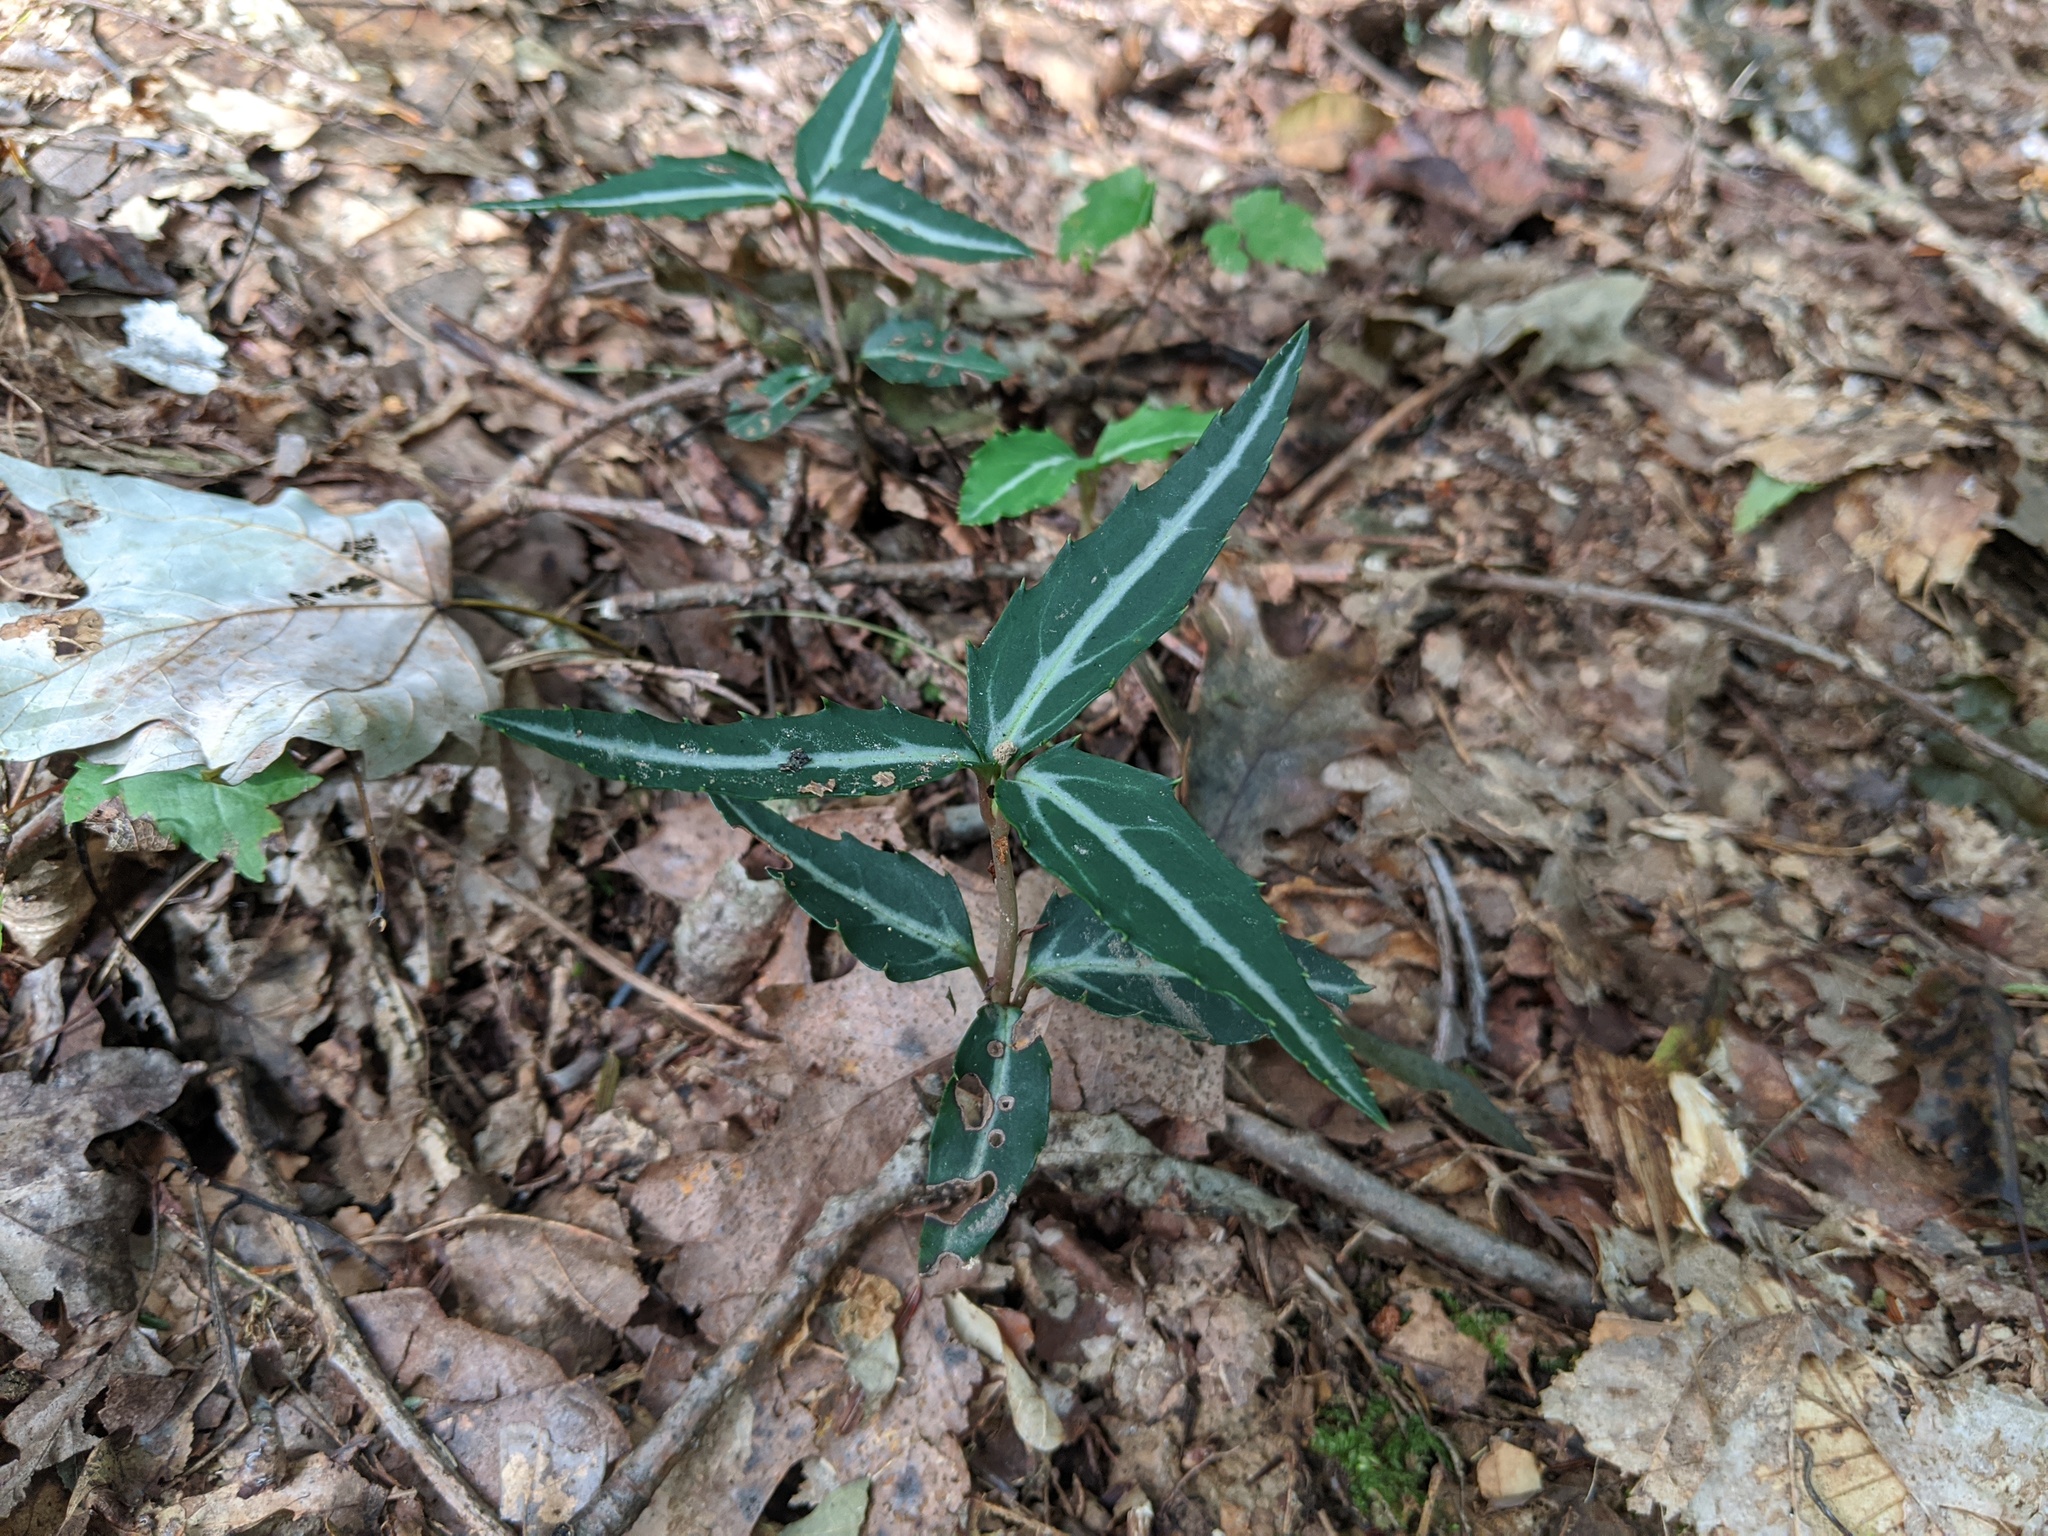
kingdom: Plantae
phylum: Tracheophyta
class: Magnoliopsida
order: Ericales
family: Ericaceae
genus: Chimaphila
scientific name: Chimaphila maculata
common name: Spotted pipsissewa
